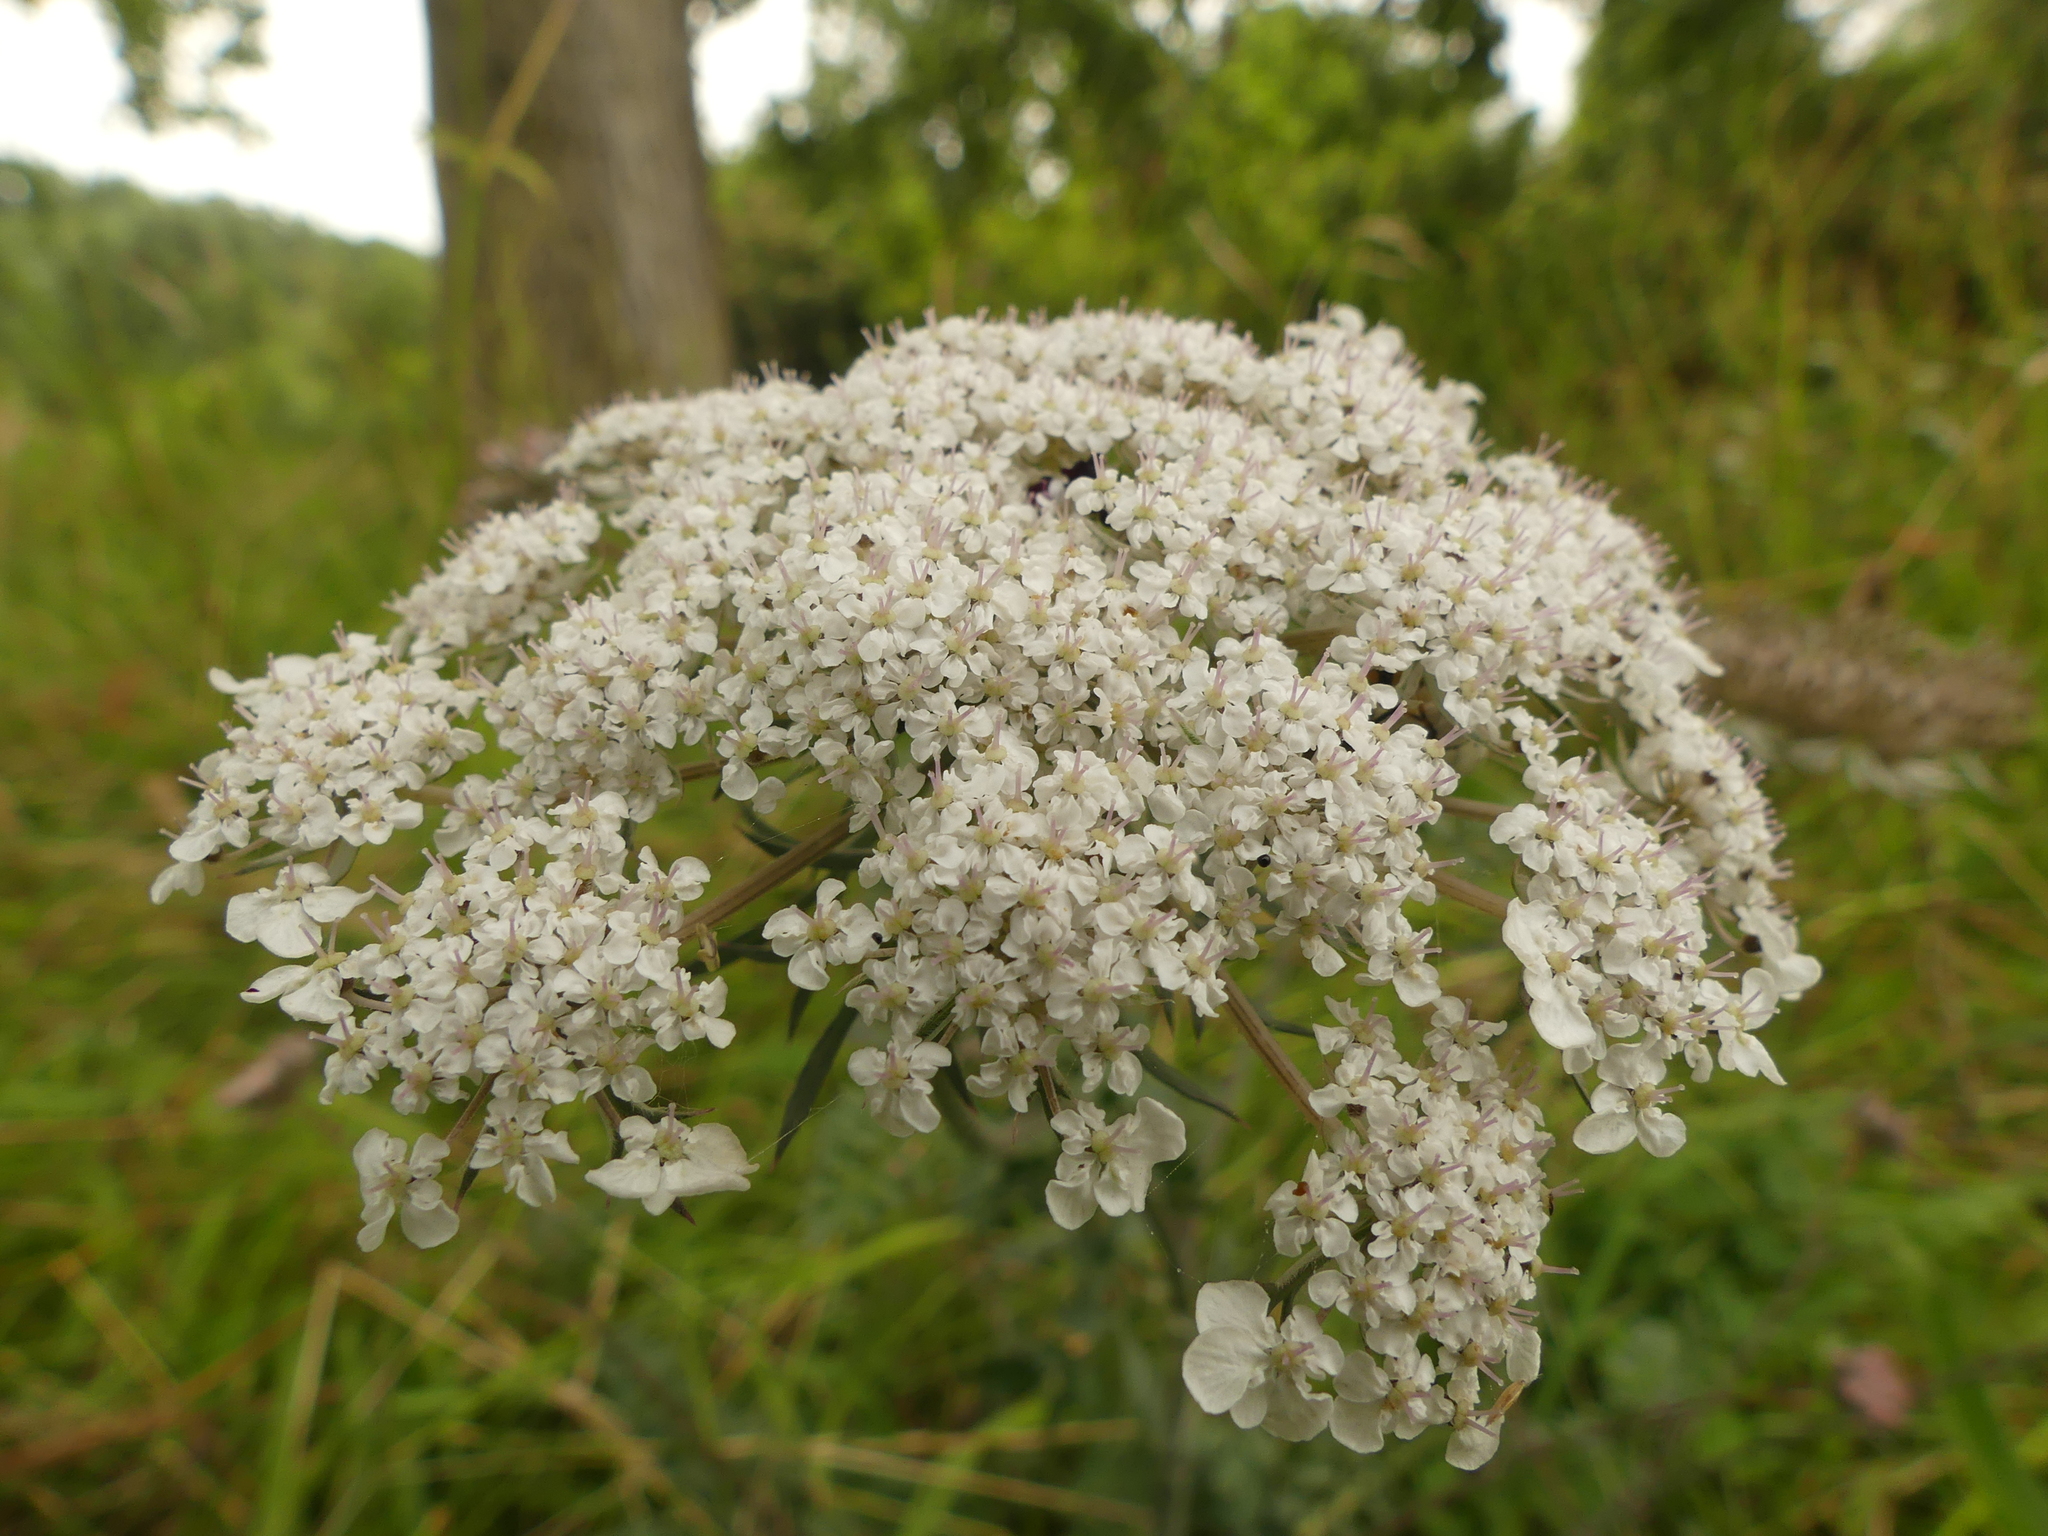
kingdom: Plantae
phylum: Tracheophyta
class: Magnoliopsida
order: Apiales
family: Apiaceae
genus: Daucus
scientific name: Daucus carota
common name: Wild carrot
